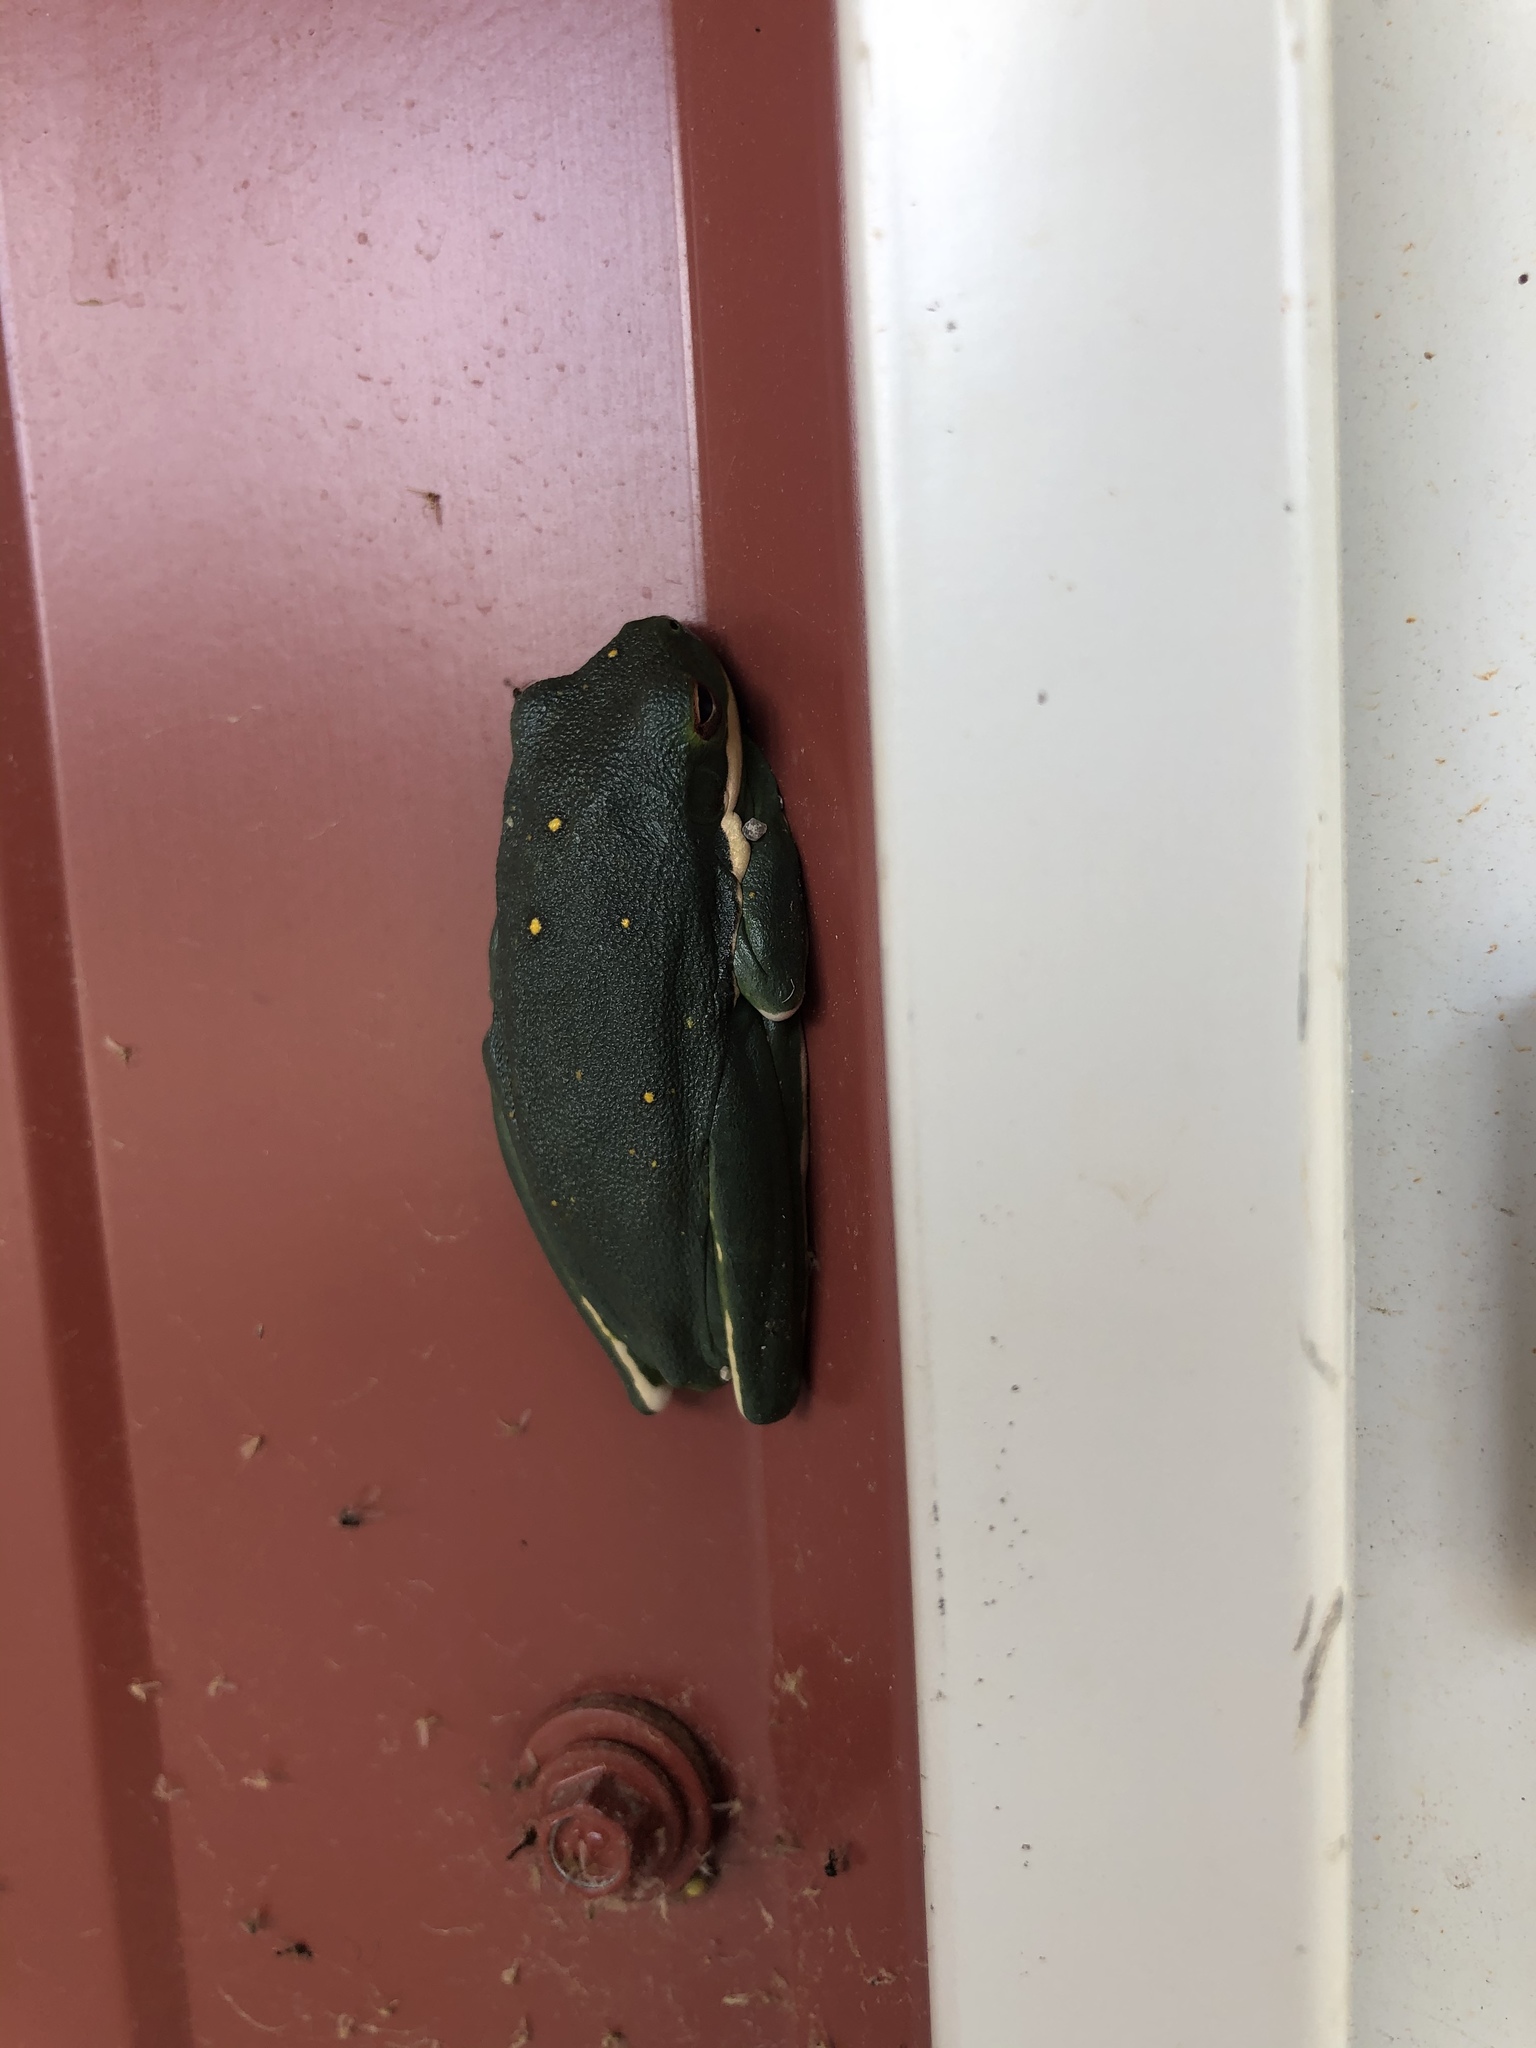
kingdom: Animalia
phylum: Chordata
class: Amphibia
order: Anura
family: Hylidae
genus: Dryophytes
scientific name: Dryophytes cinereus
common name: Green treefrog
